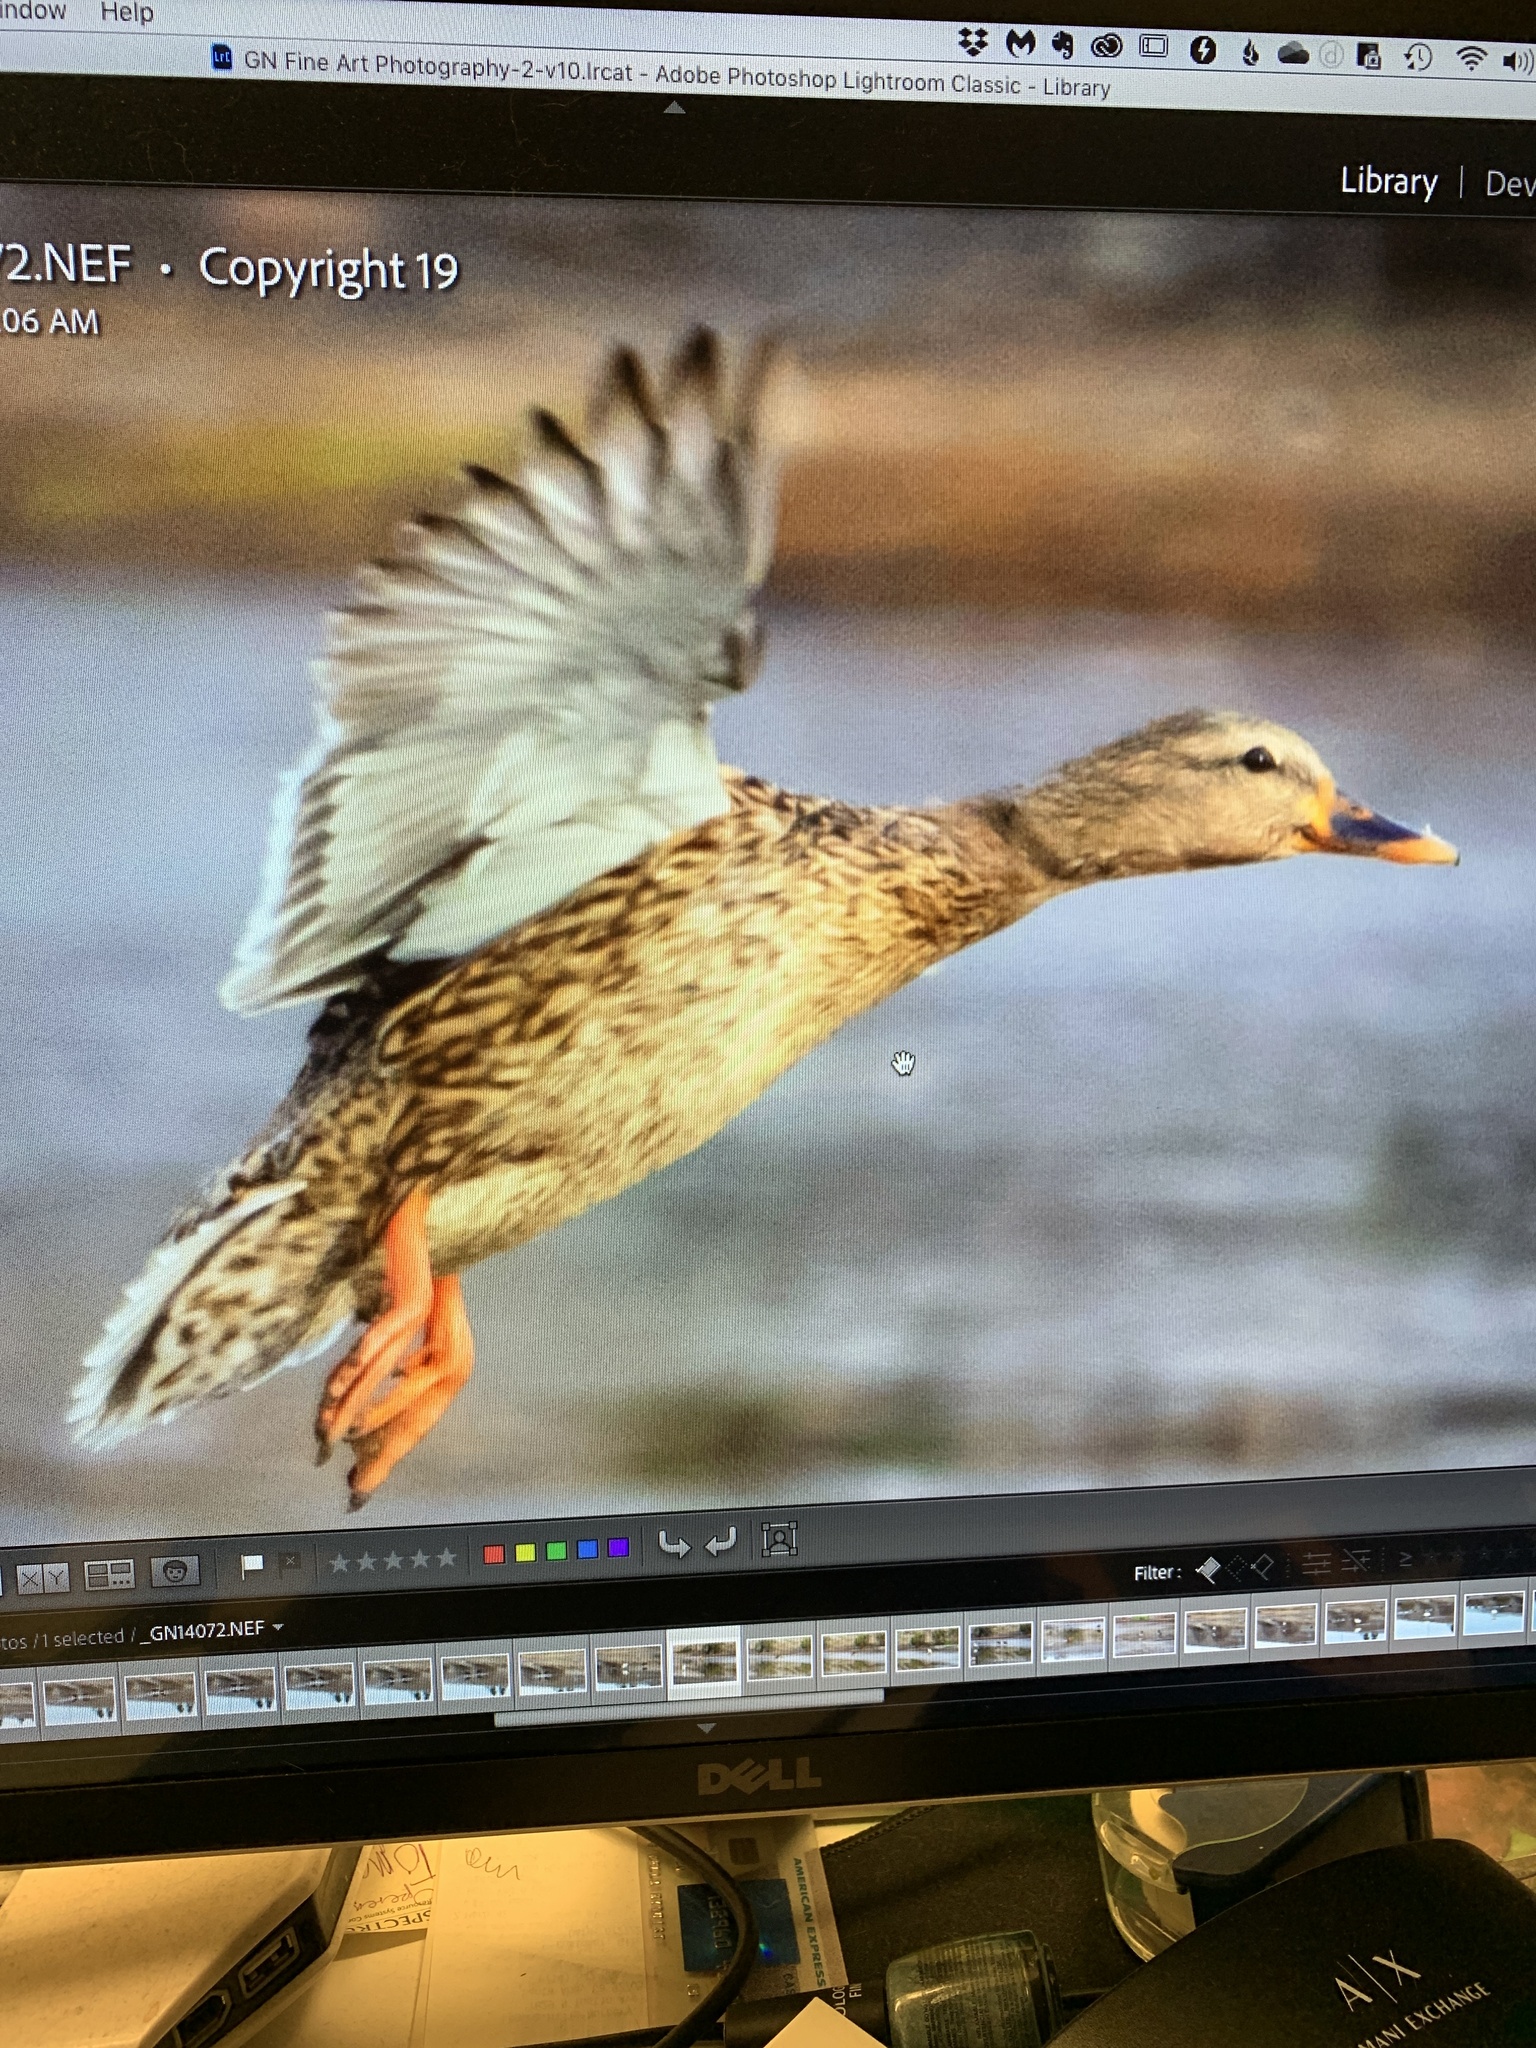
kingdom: Animalia
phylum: Chordata
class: Aves
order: Anseriformes
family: Anatidae
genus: Anas
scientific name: Anas platyrhynchos
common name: Mallard
